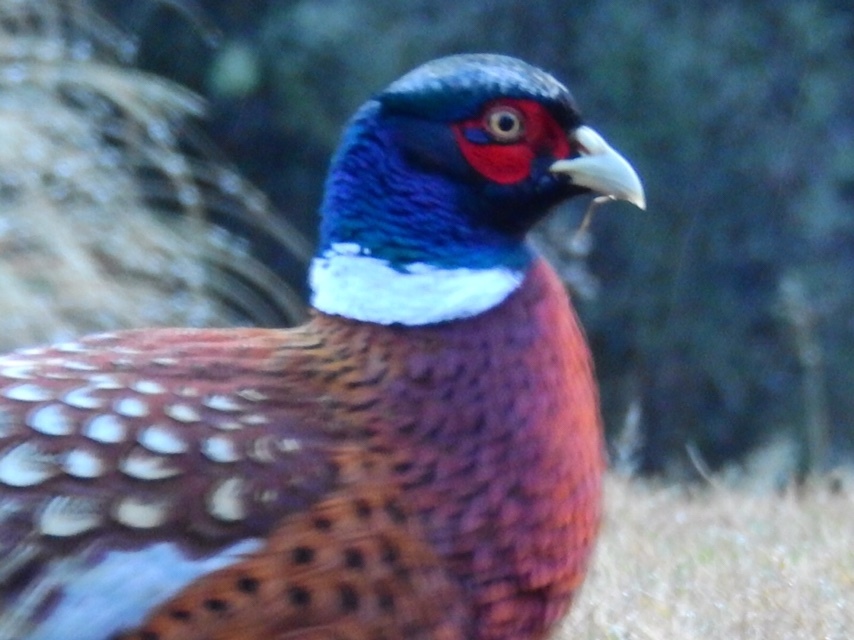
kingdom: Animalia
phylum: Chordata
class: Aves
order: Galliformes
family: Phasianidae
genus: Phasianus
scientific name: Phasianus colchicus
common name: Common pheasant
